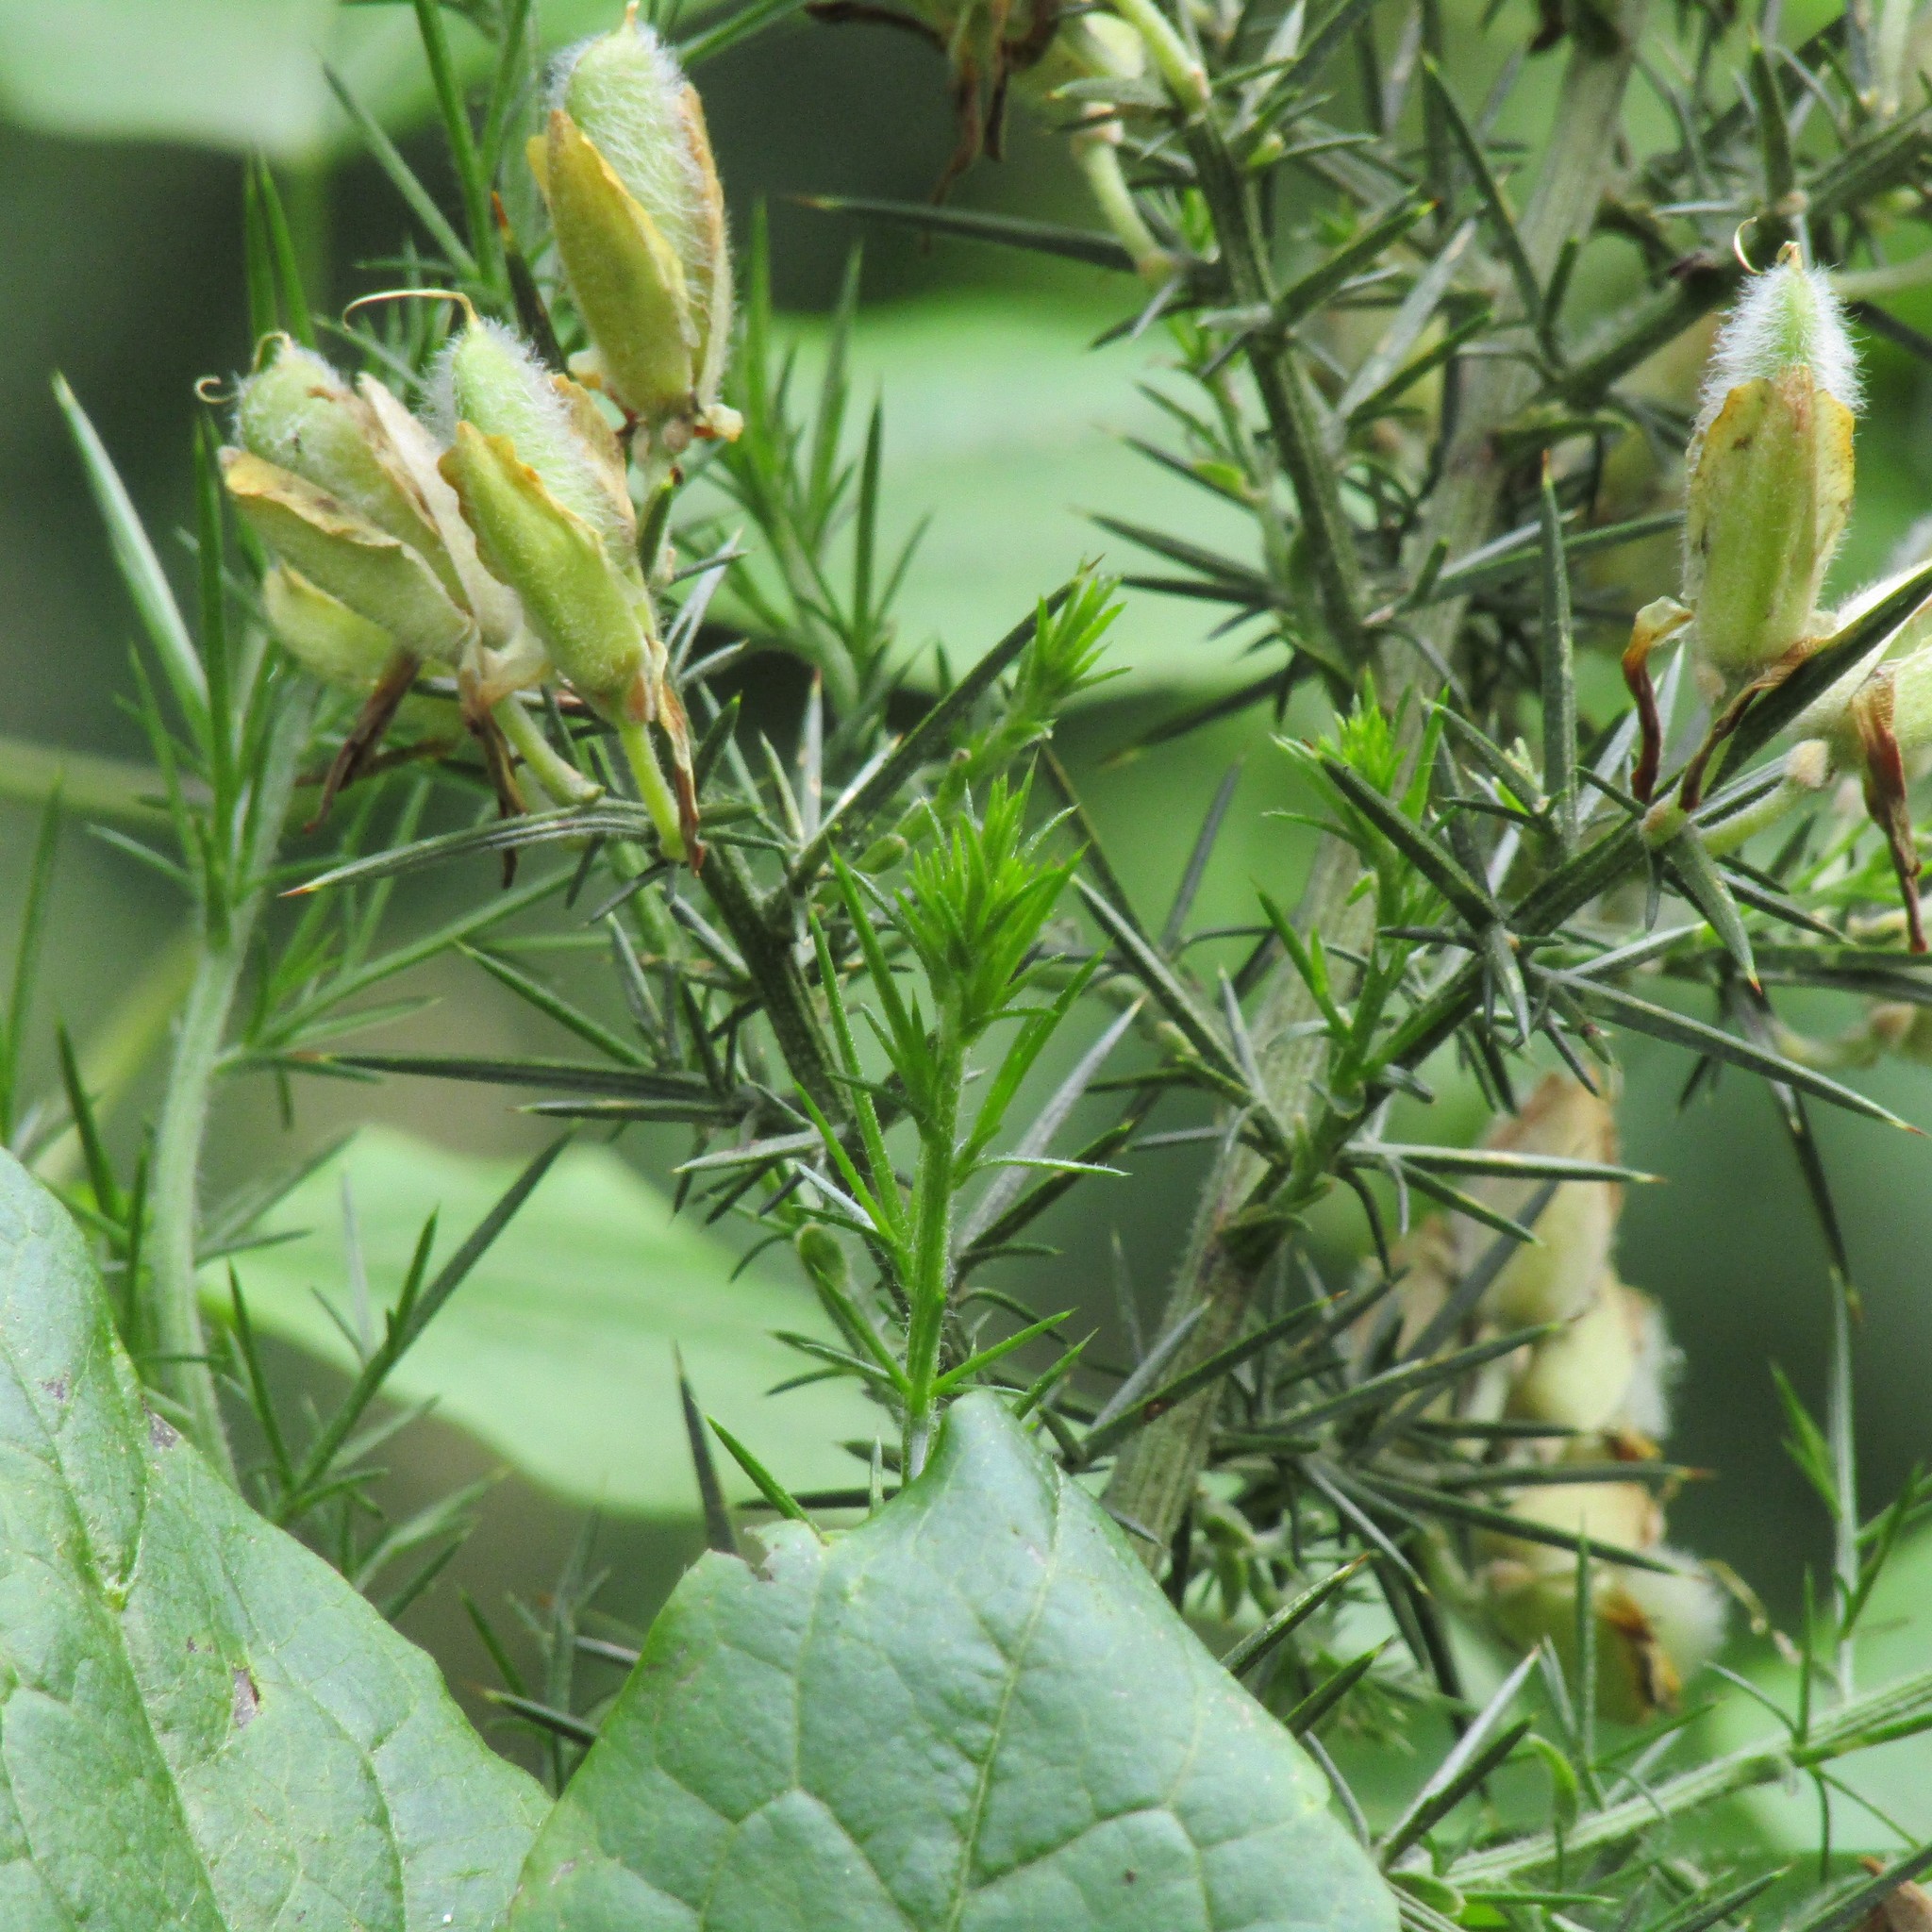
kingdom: Plantae
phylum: Tracheophyta
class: Magnoliopsida
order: Fabales
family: Fabaceae
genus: Ulex
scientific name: Ulex europaeus
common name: Common gorse
